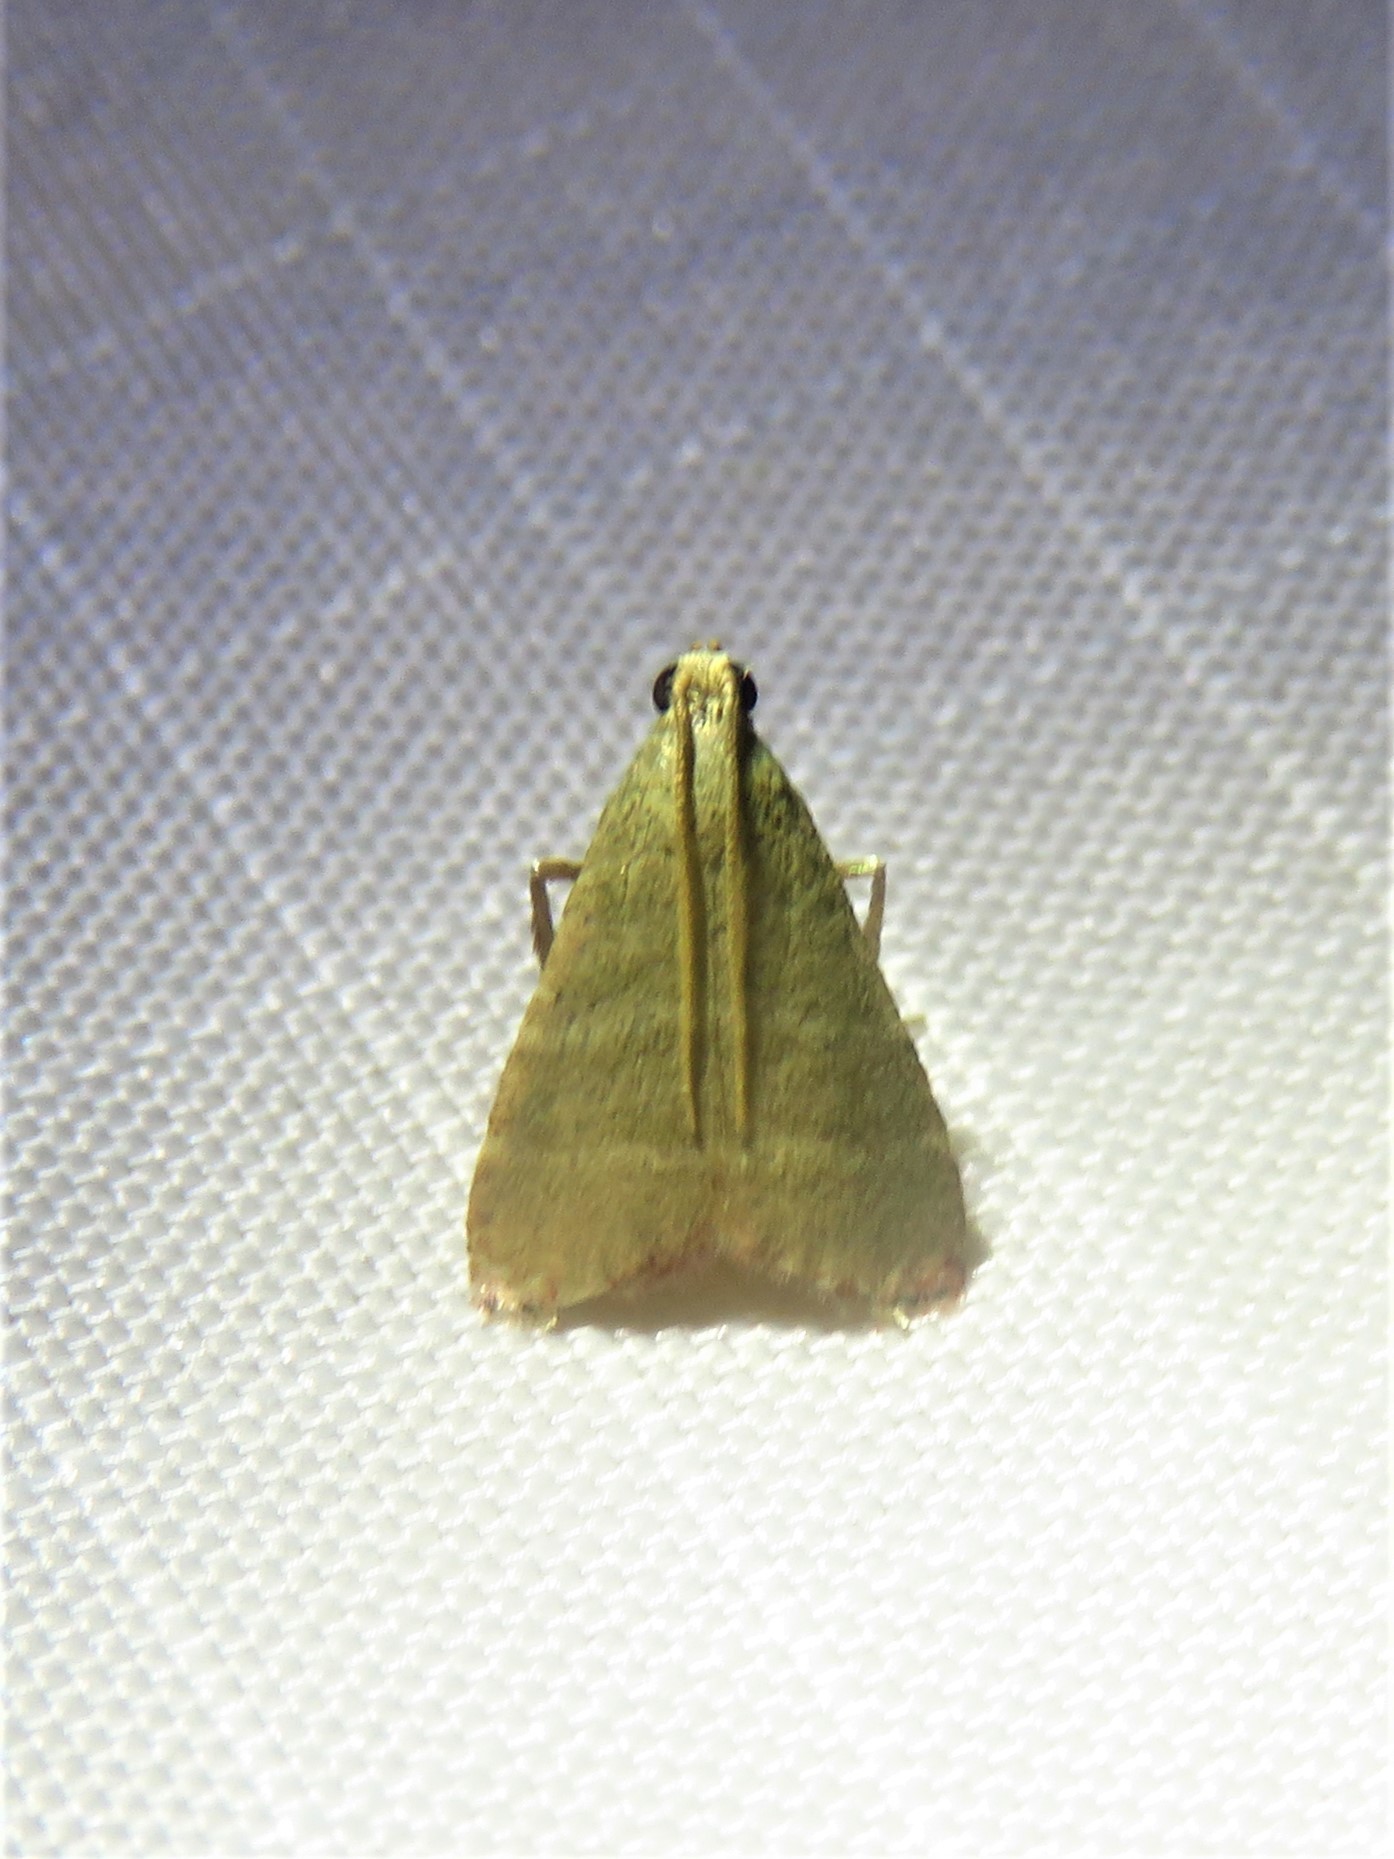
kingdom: Animalia
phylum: Arthropoda
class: Insecta
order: Lepidoptera
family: Pyralidae
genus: Arta
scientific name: Arta olivalis
